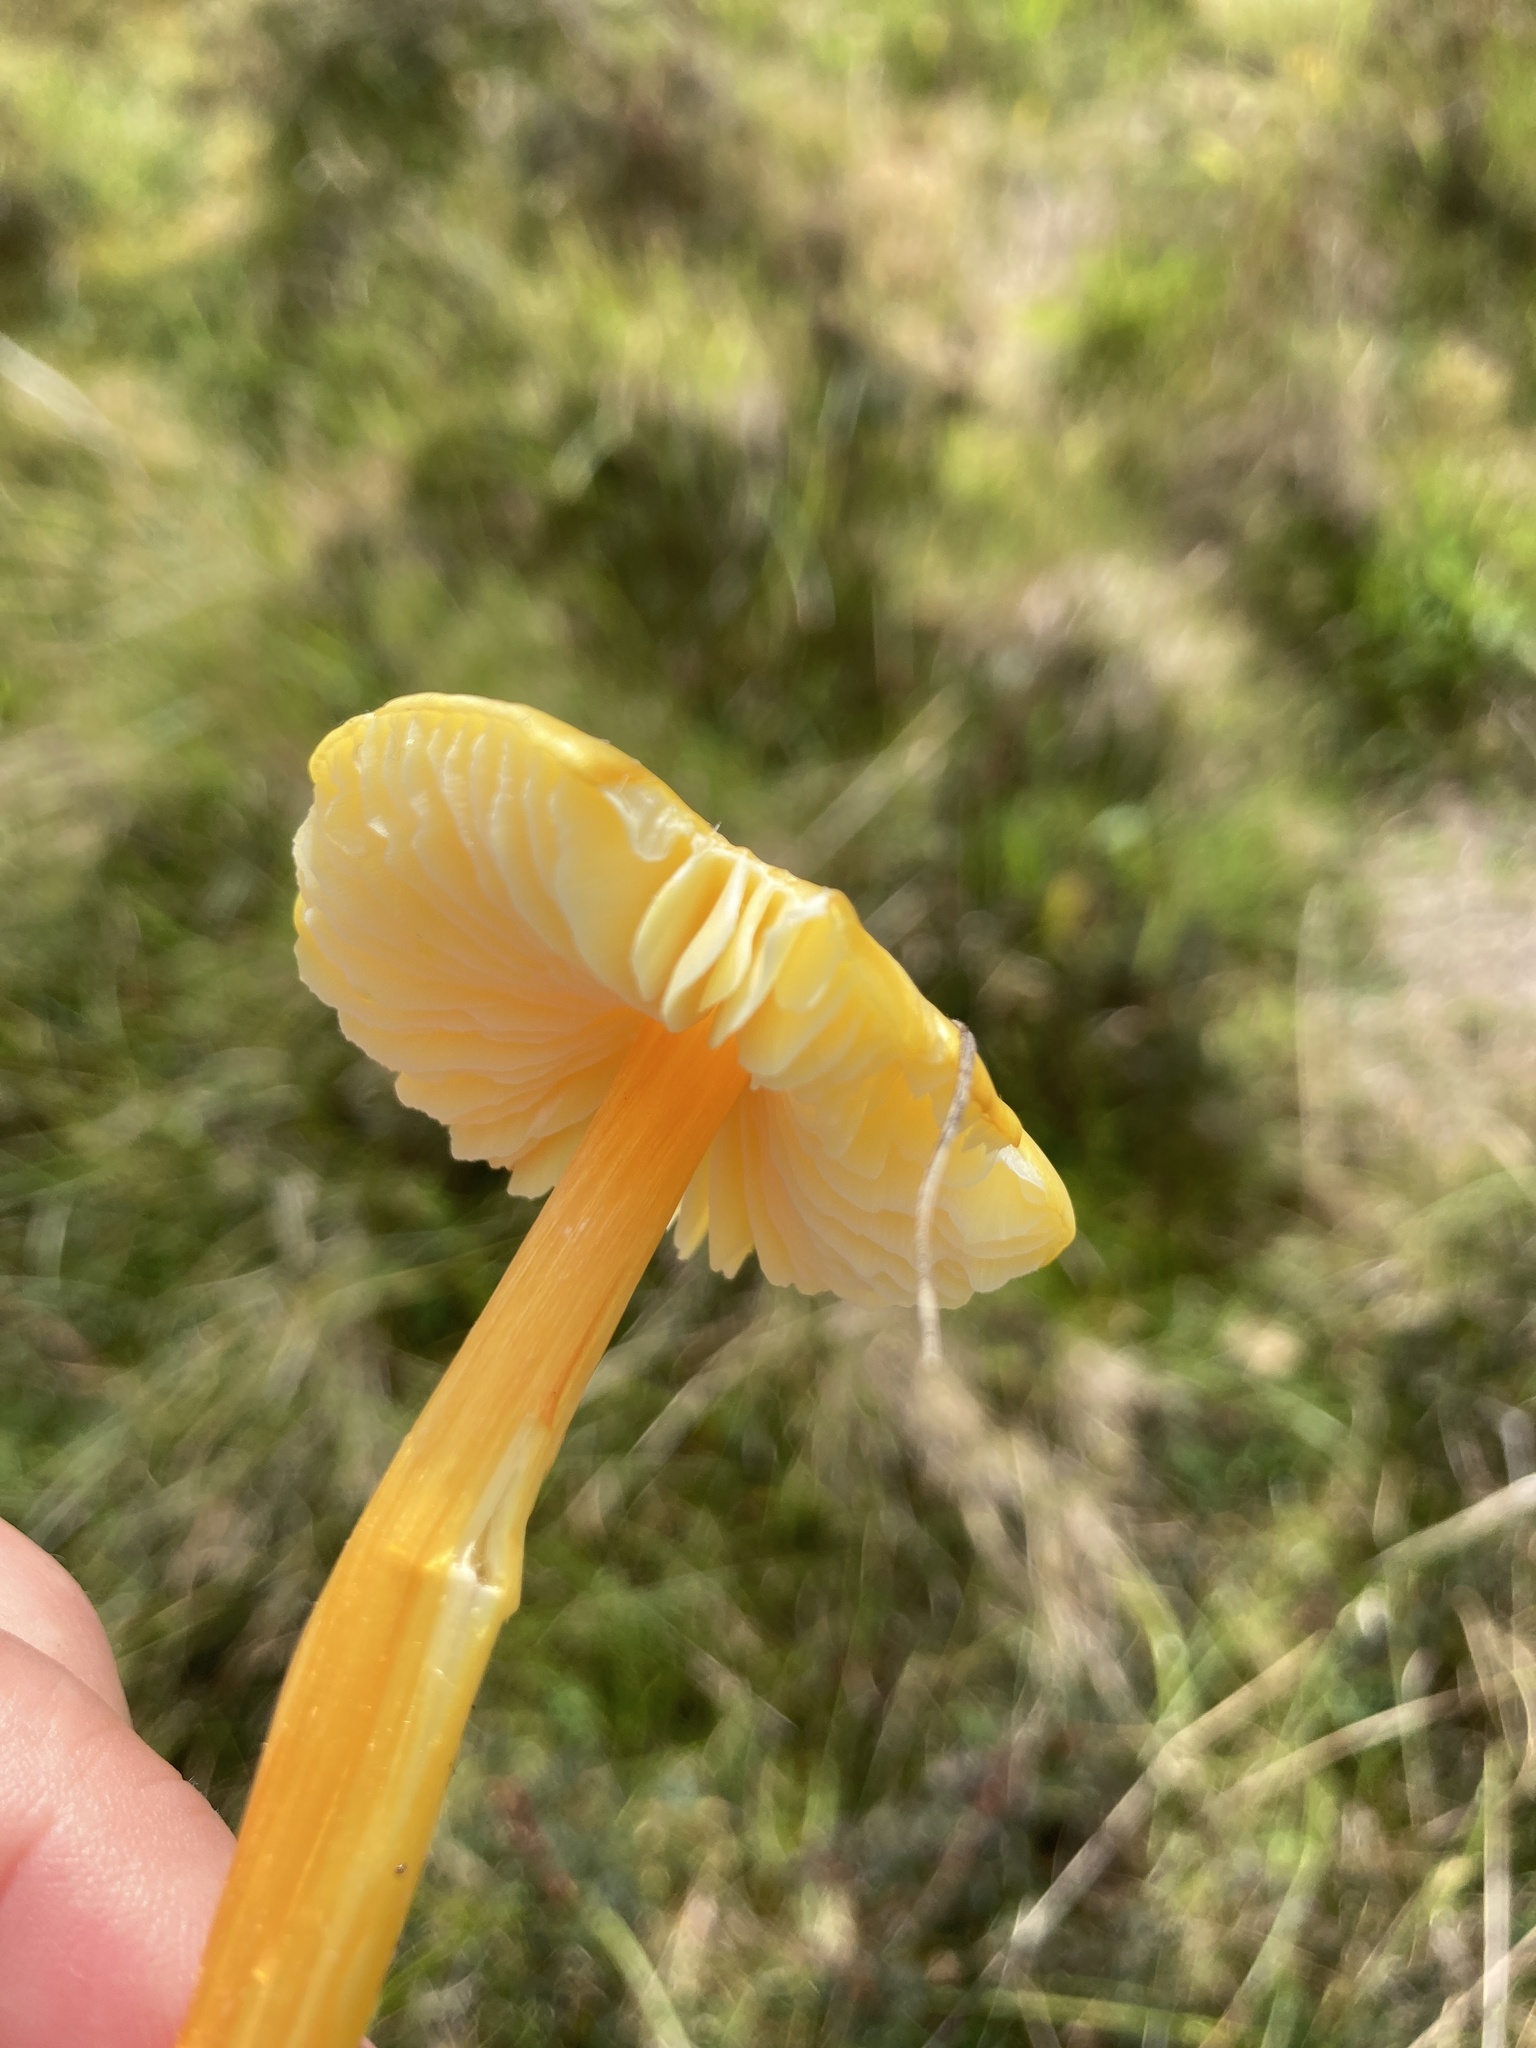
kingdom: Fungi
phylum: Basidiomycota
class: Agaricomycetes
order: Agaricales
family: Hygrophoraceae
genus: Hygrocybe
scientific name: Hygrocybe acutoconica
